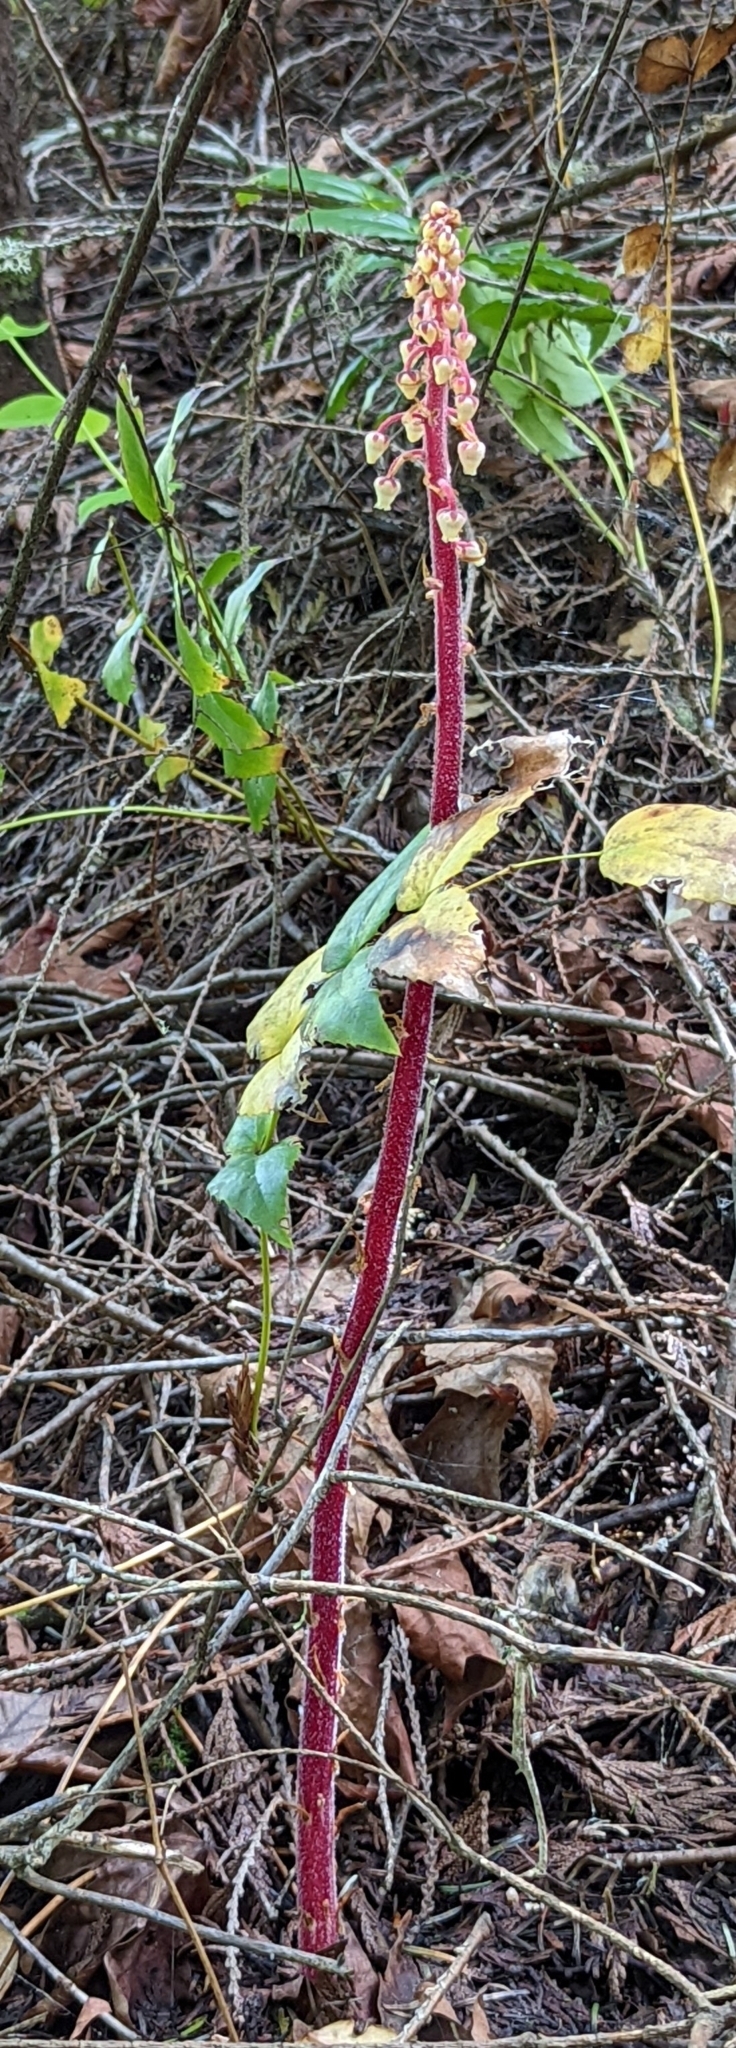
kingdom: Plantae
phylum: Tracheophyta
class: Magnoliopsida
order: Ericales
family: Ericaceae
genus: Pterospora
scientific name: Pterospora andromedea
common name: Giant bird's-nest
